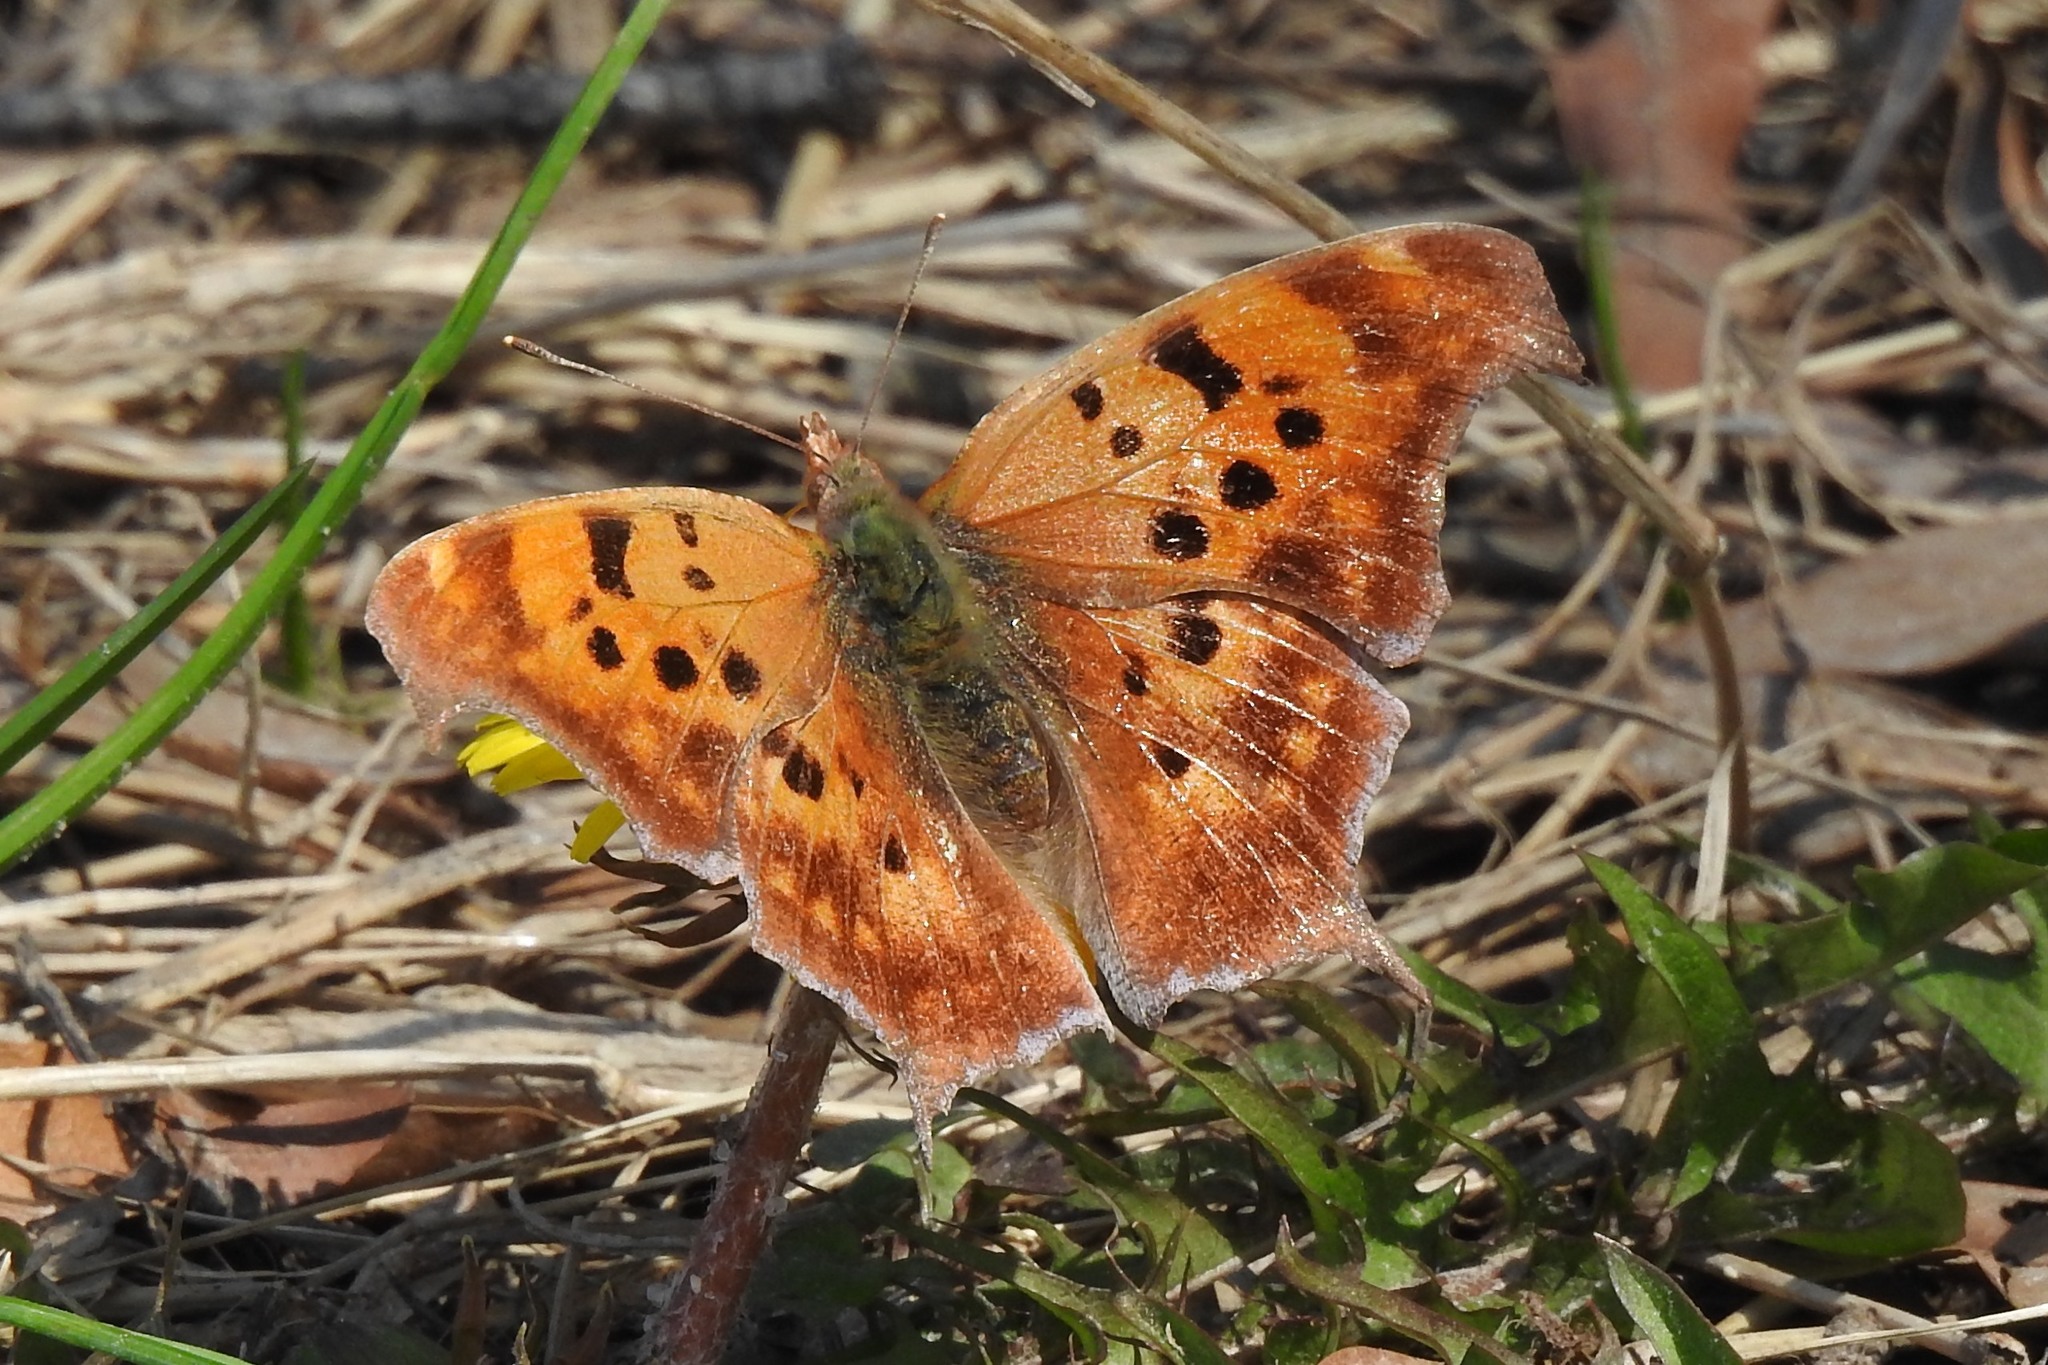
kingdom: Animalia
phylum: Arthropoda
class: Insecta
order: Lepidoptera
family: Nymphalidae
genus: Polygonia
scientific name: Polygonia interrogationis
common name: Question mark
